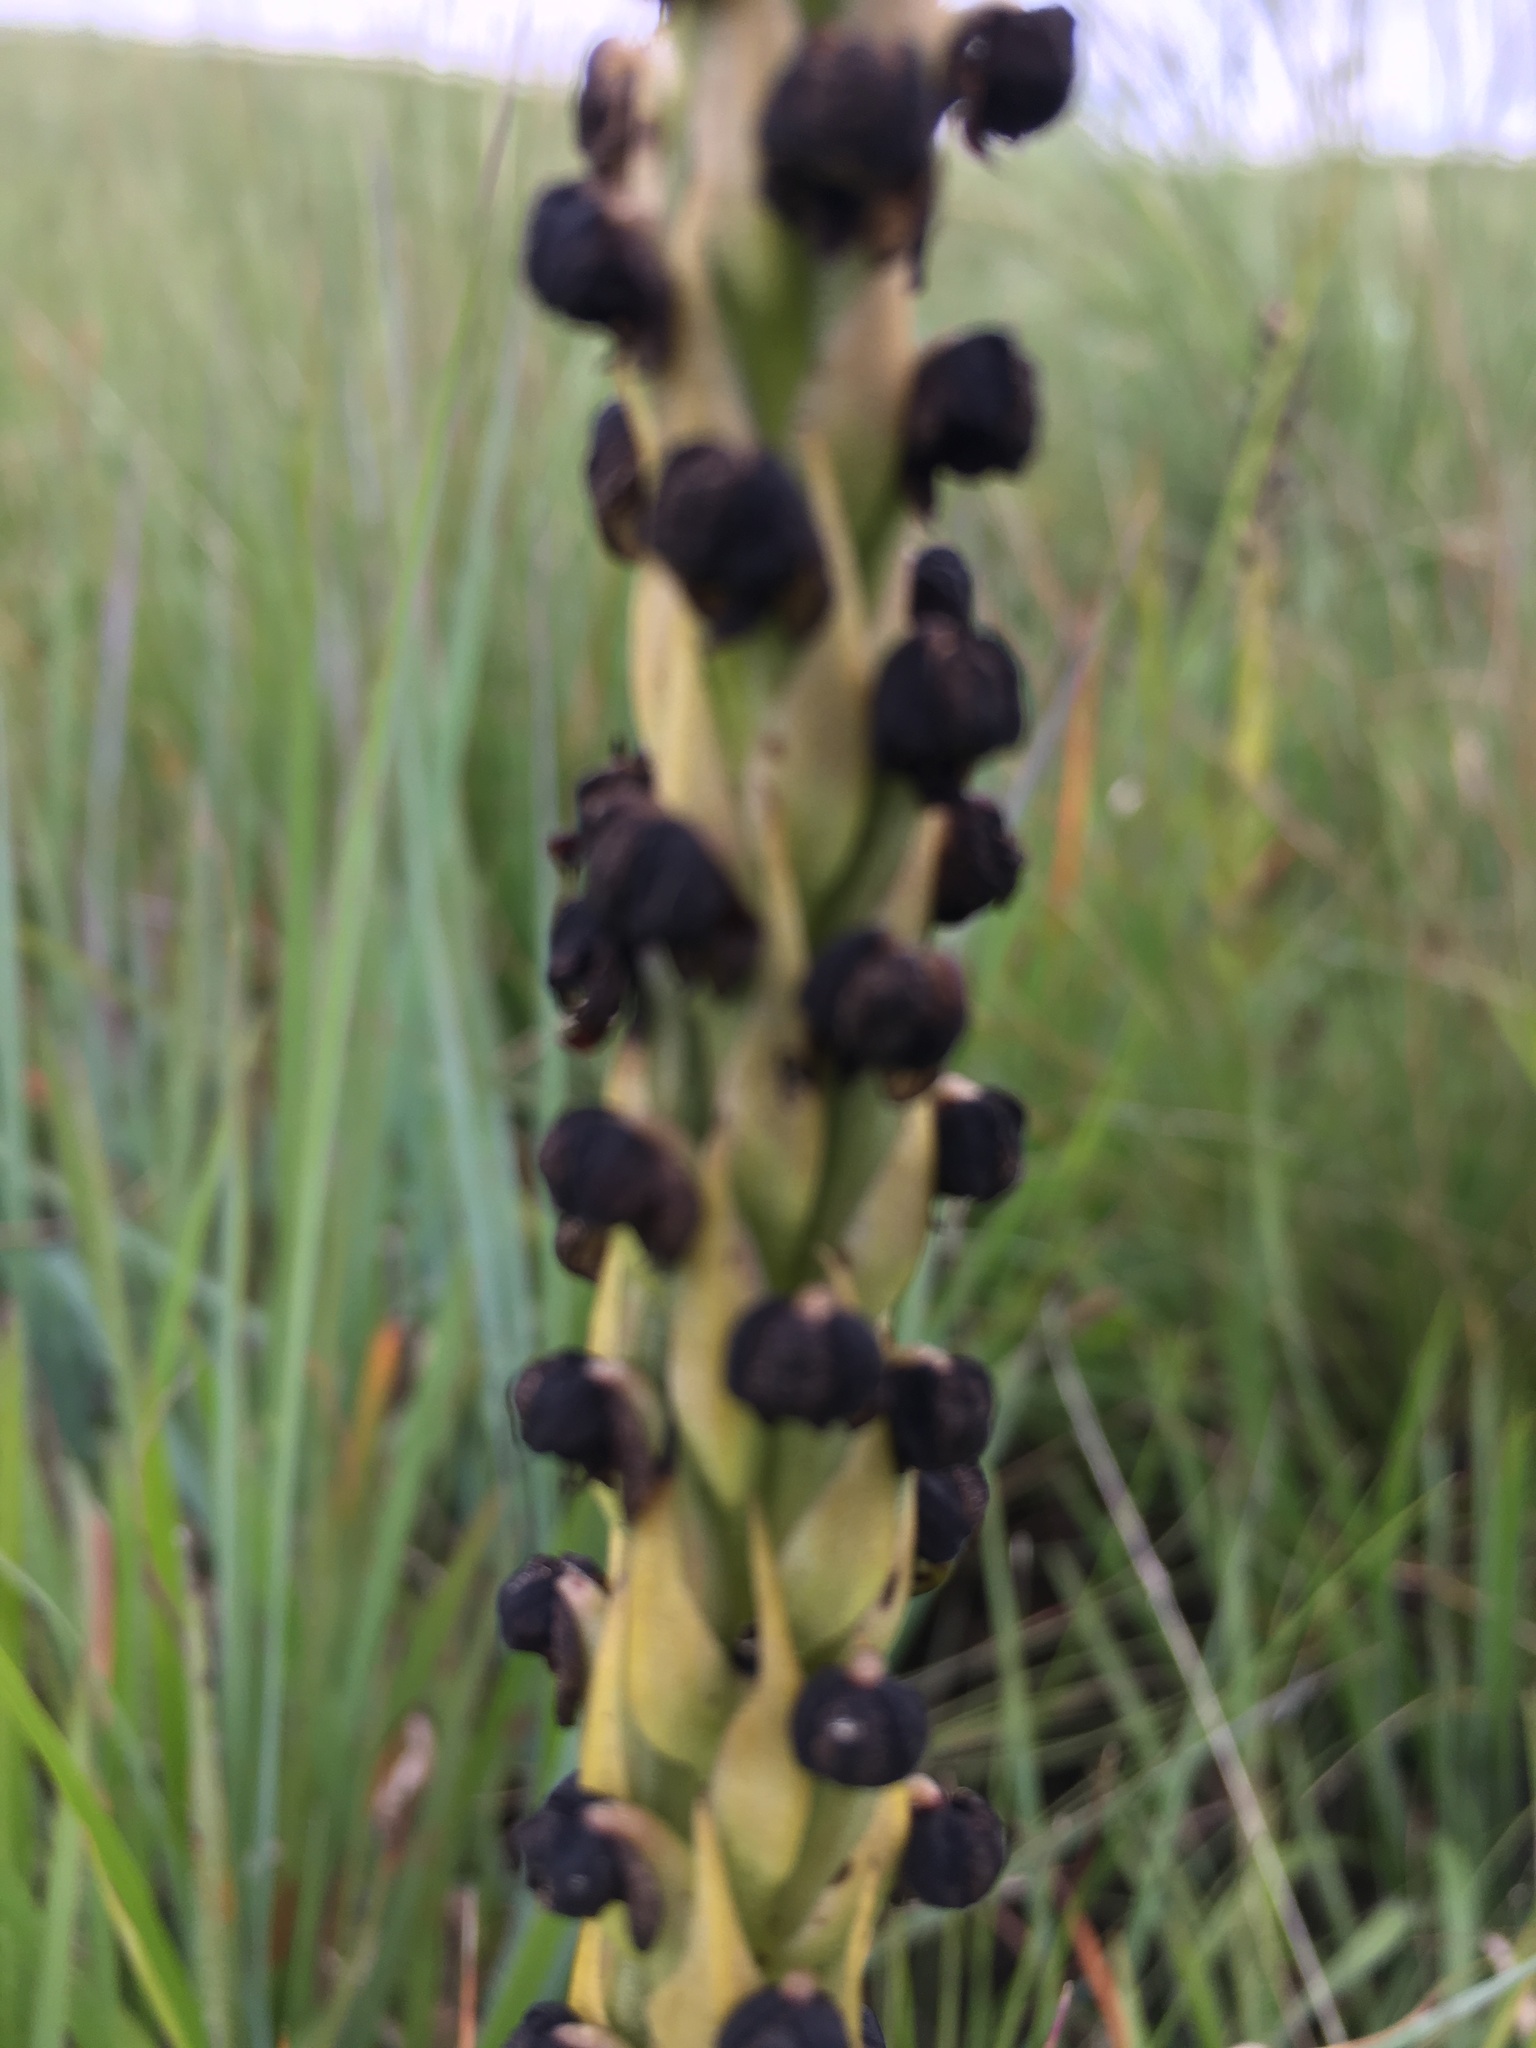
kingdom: Plantae
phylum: Tracheophyta
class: Liliopsida
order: Asparagales
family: Orchidaceae
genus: Corycium
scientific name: Corycium nigrescens
